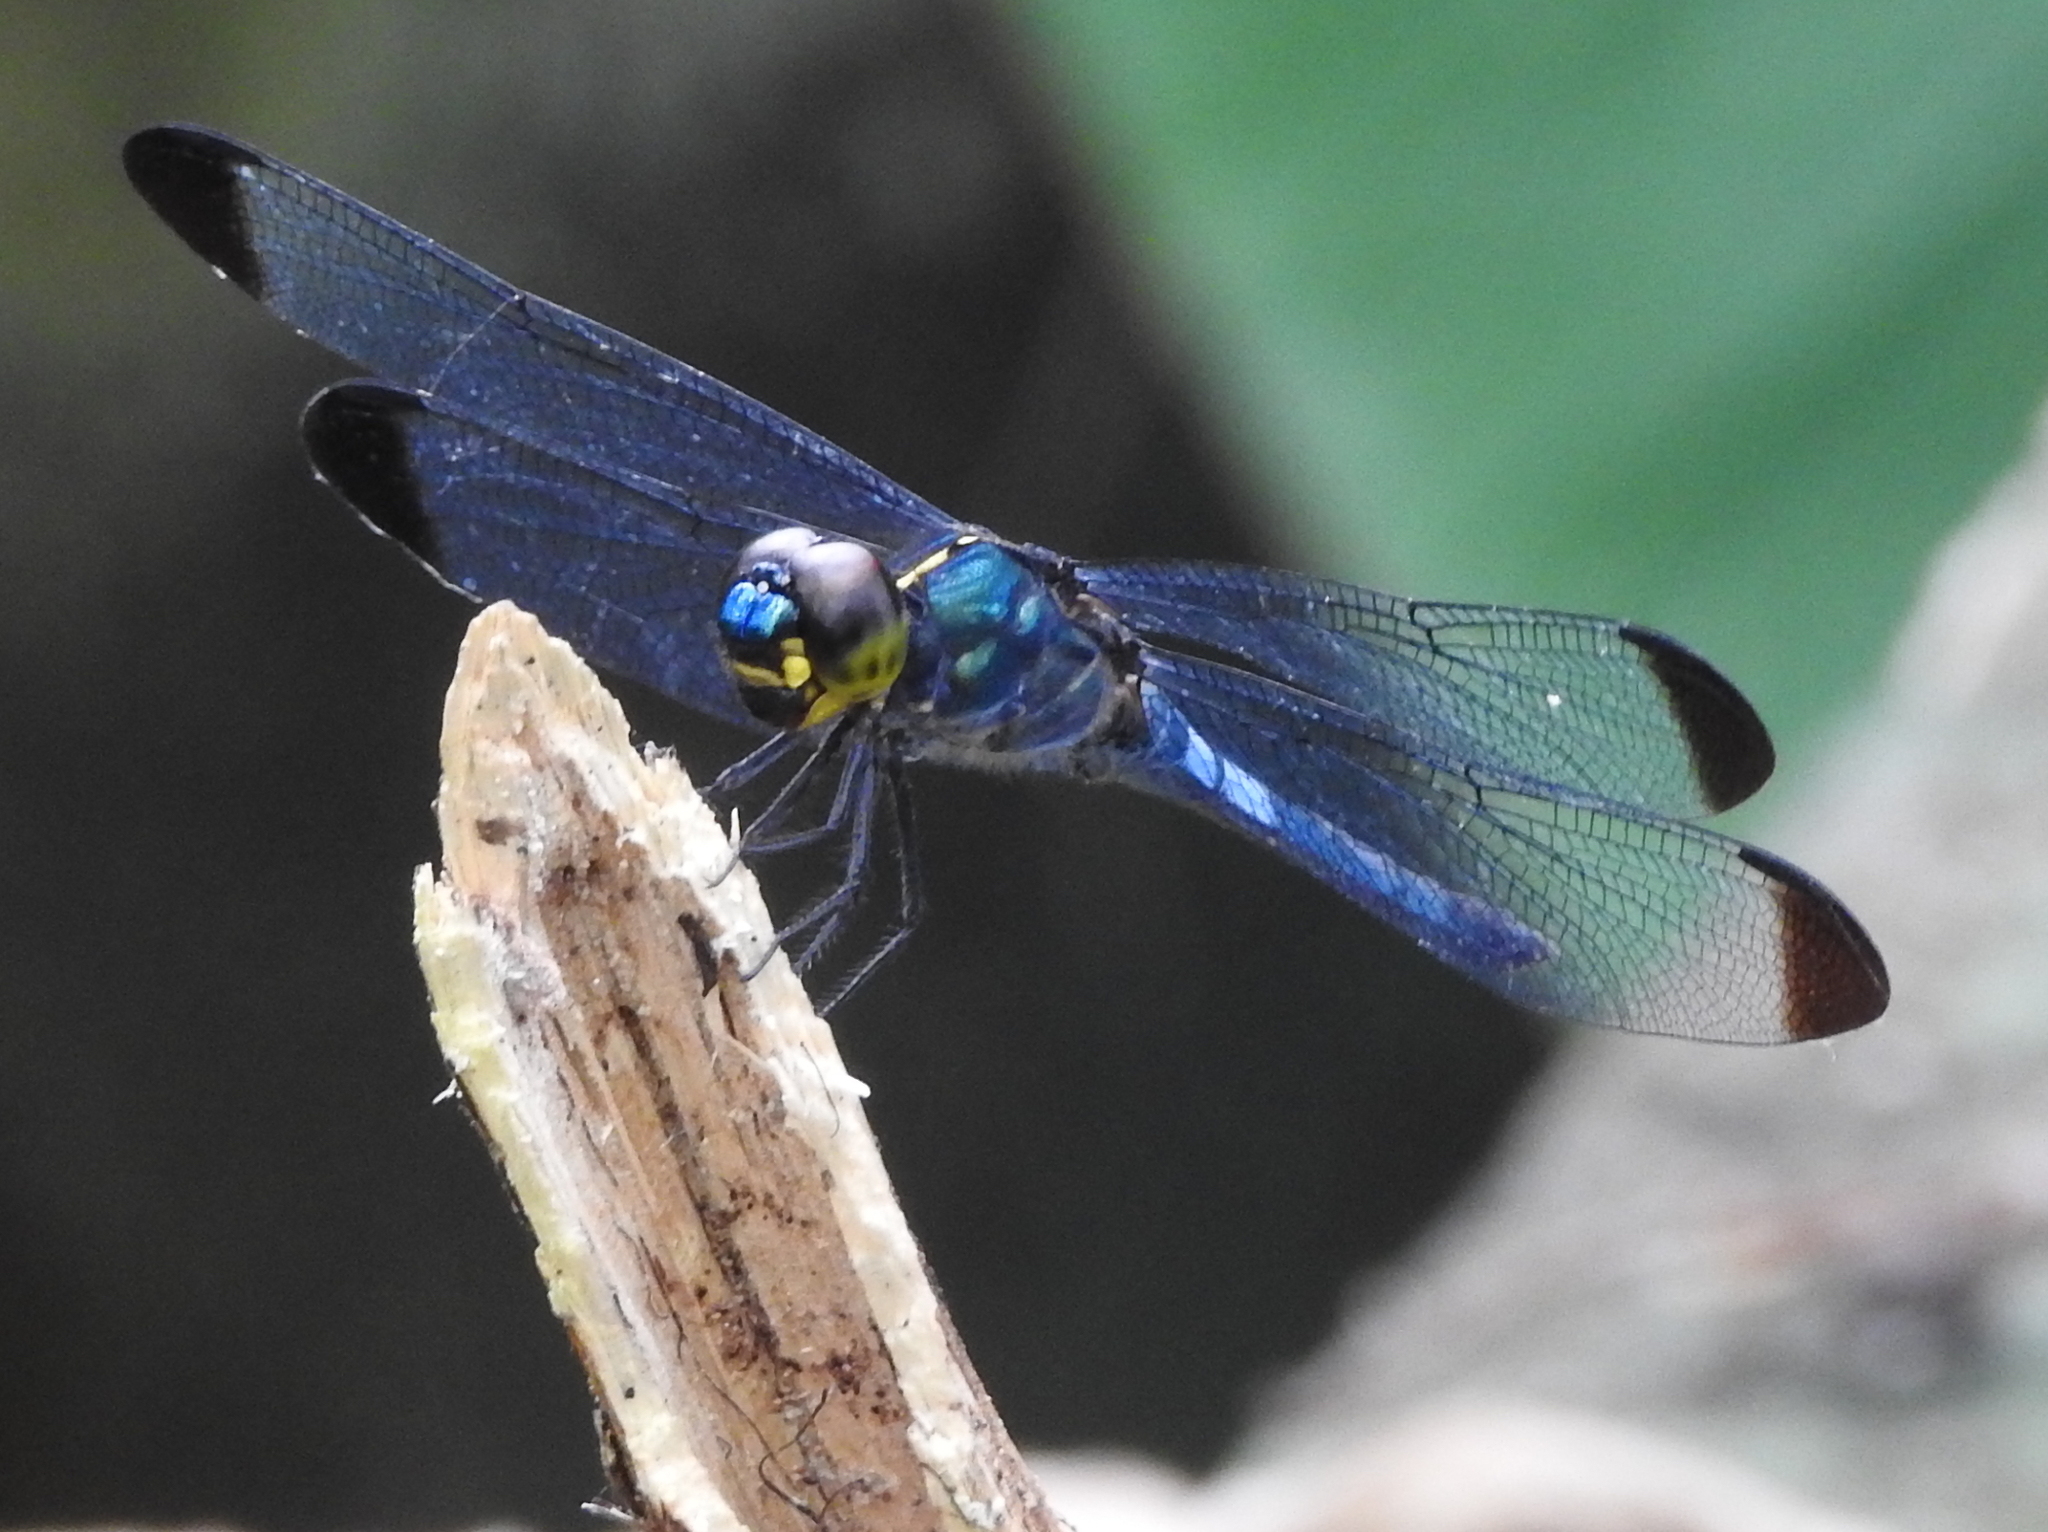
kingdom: Animalia
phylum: Arthropoda
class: Insecta
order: Odonata
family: Libellulidae
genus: Cratilla
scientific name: Cratilla metallica
